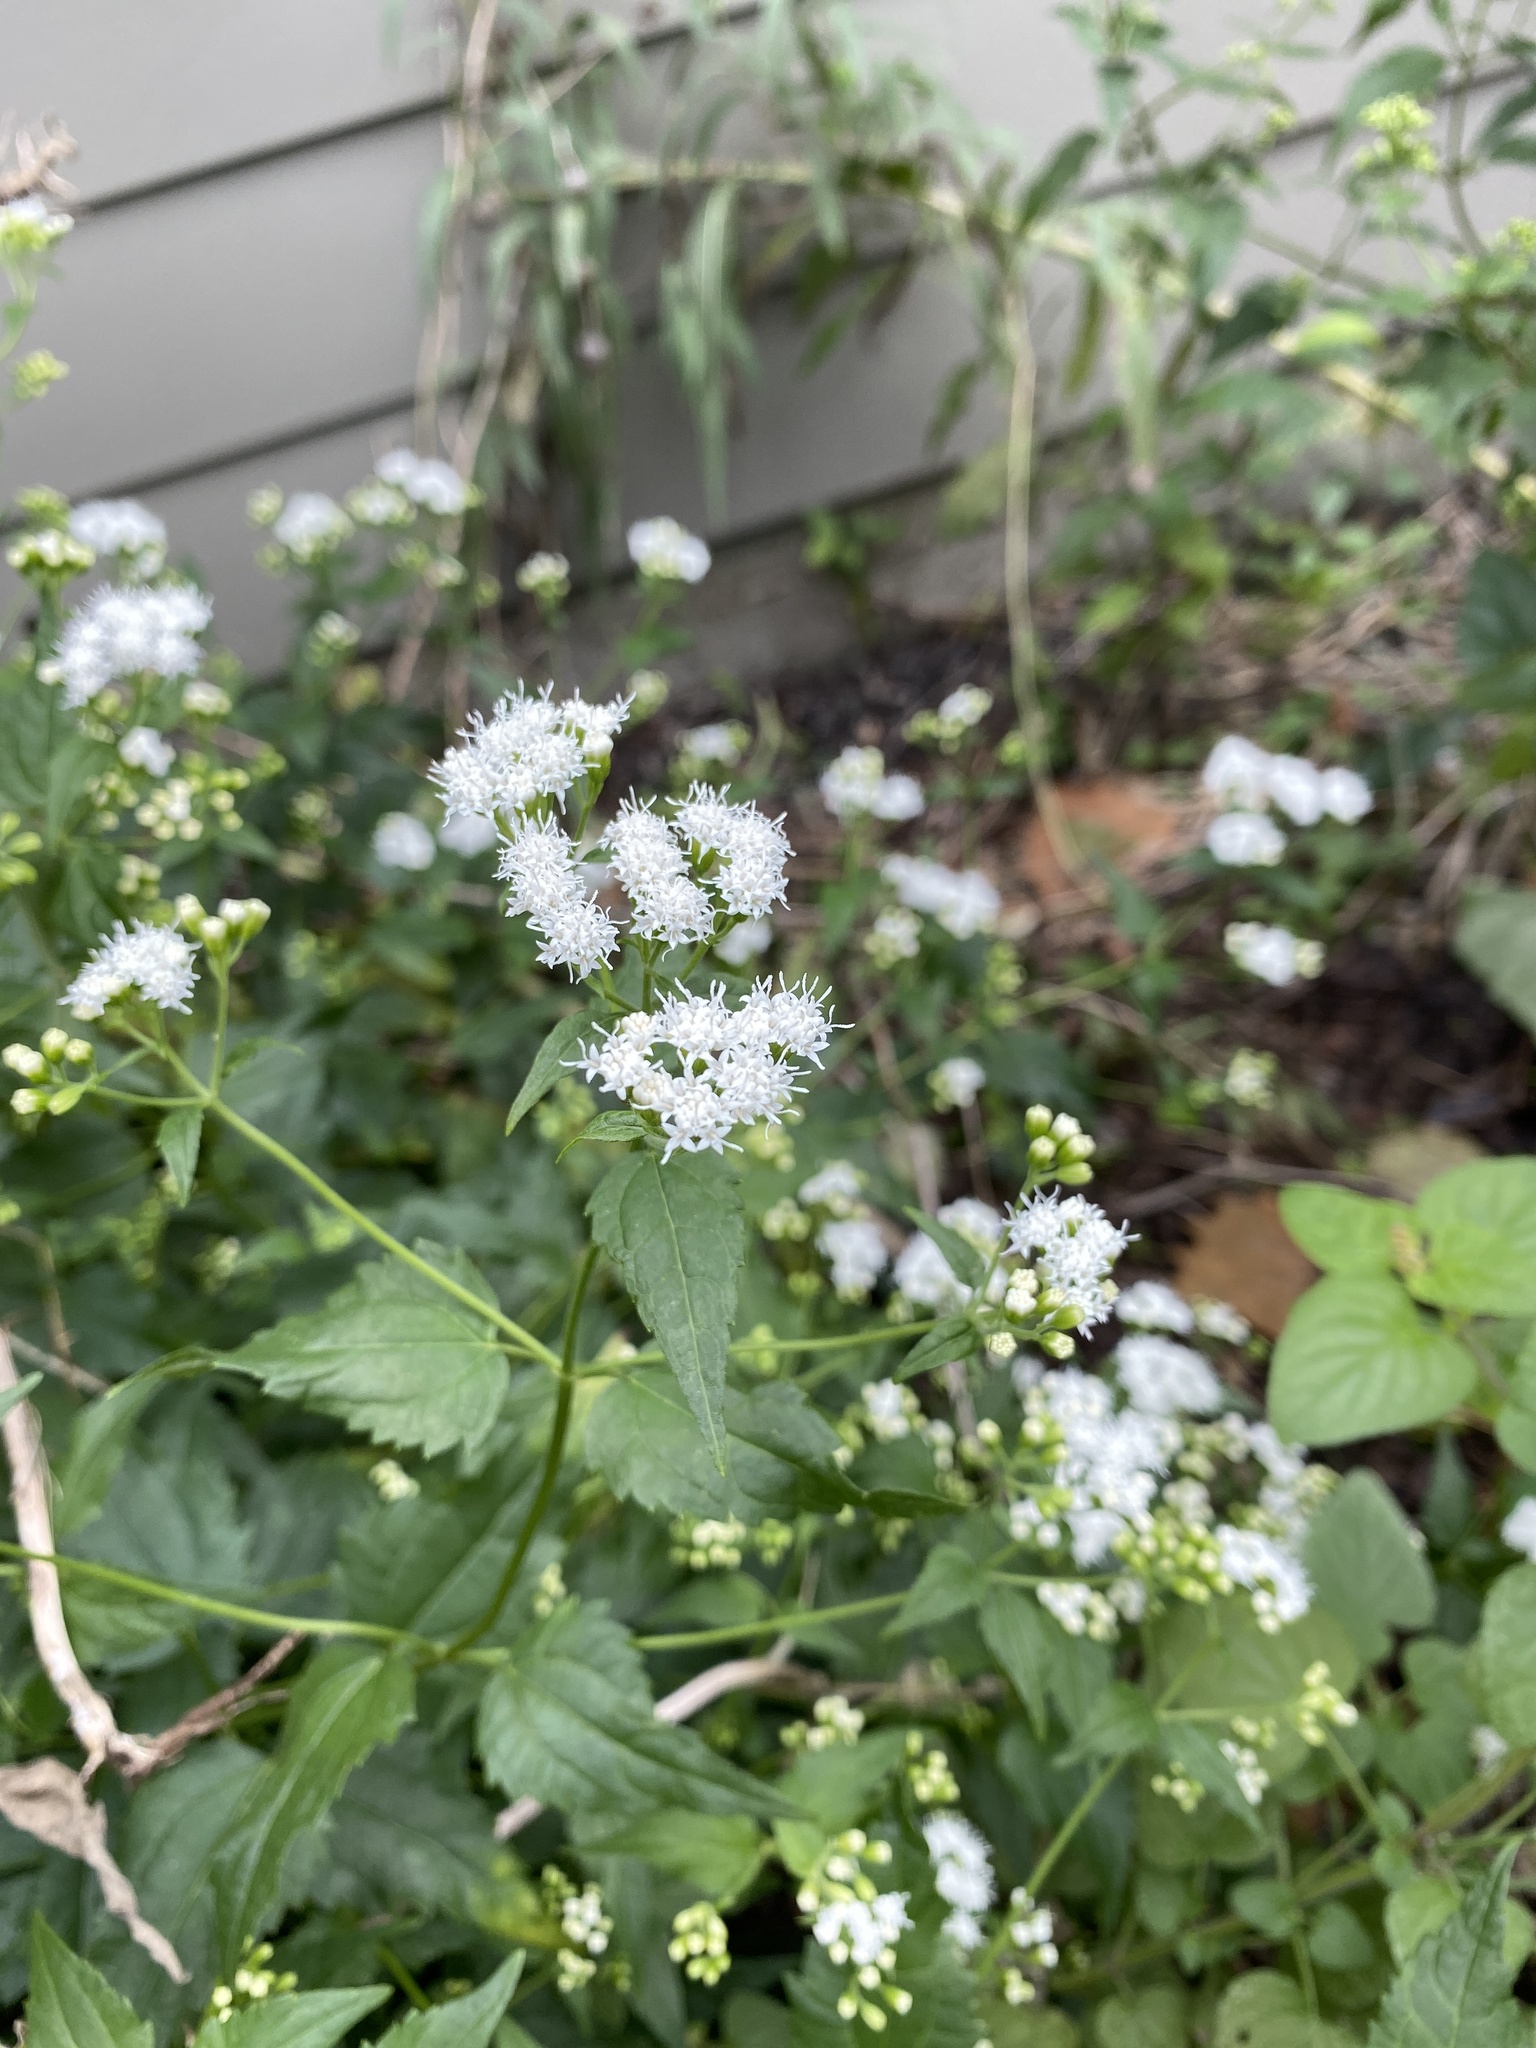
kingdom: Plantae
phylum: Tracheophyta
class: Magnoliopsida
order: Asterales
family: Asteraceae
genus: Ageratina
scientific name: Ageratina altissima
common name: White snakeroot
